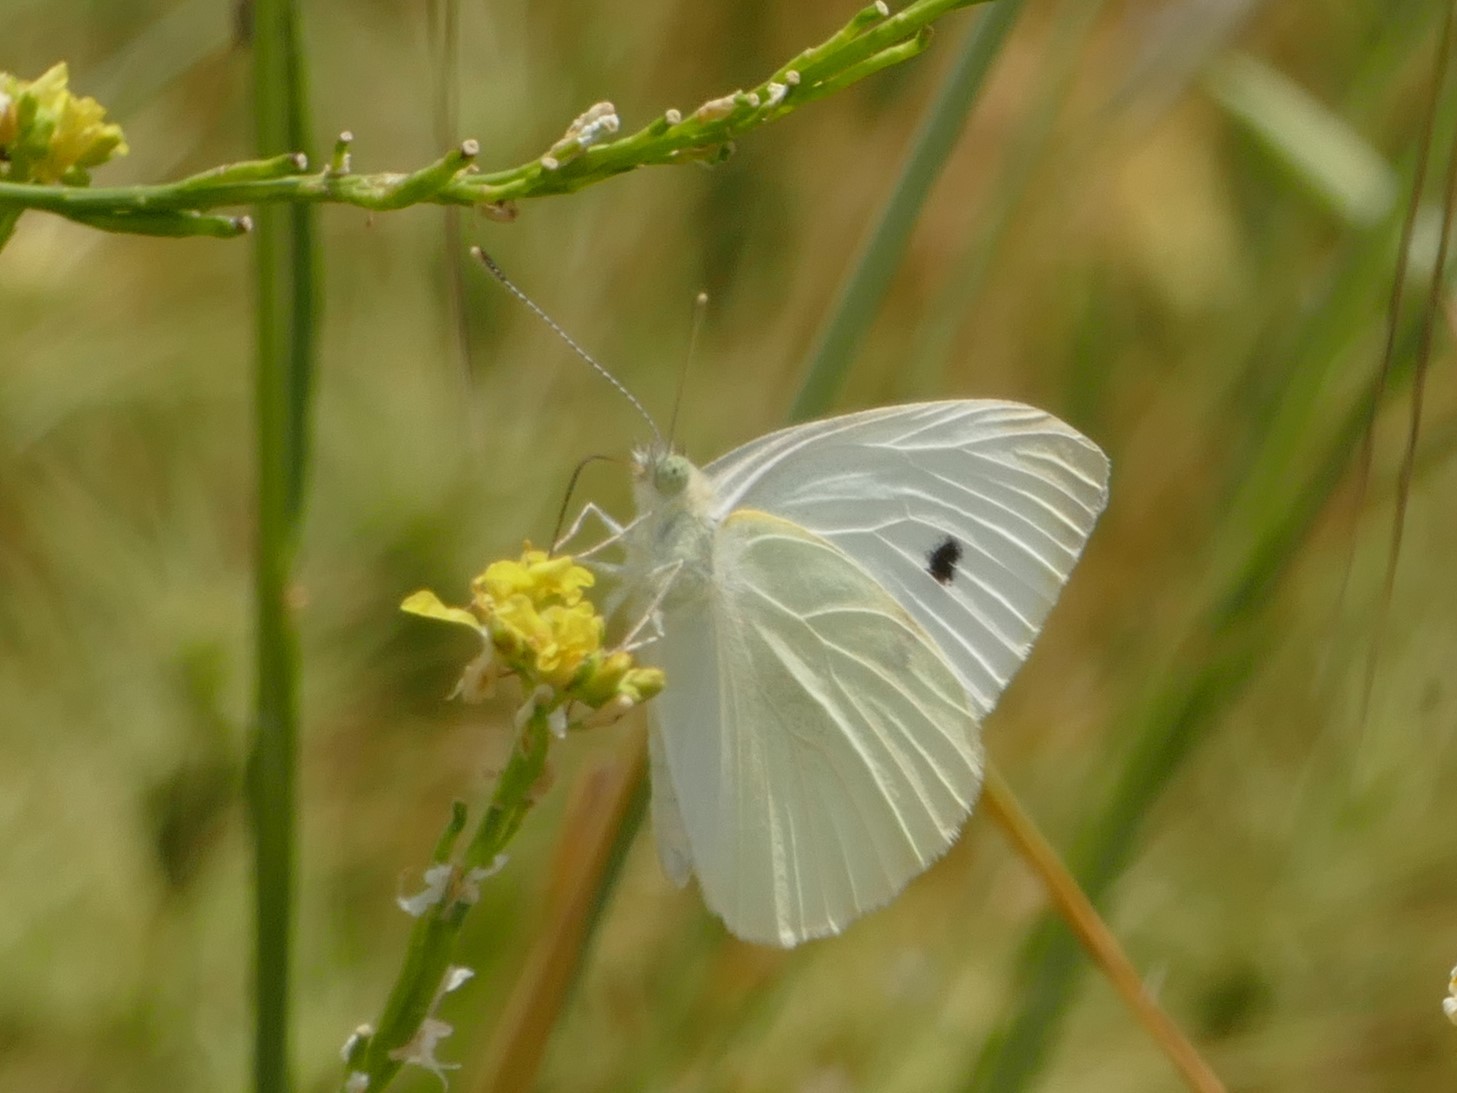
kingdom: Animalia
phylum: Arthropoda
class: Insecta
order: Lepidoptera
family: Pieridae
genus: Pieris
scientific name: Pieris rapae
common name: Small white
